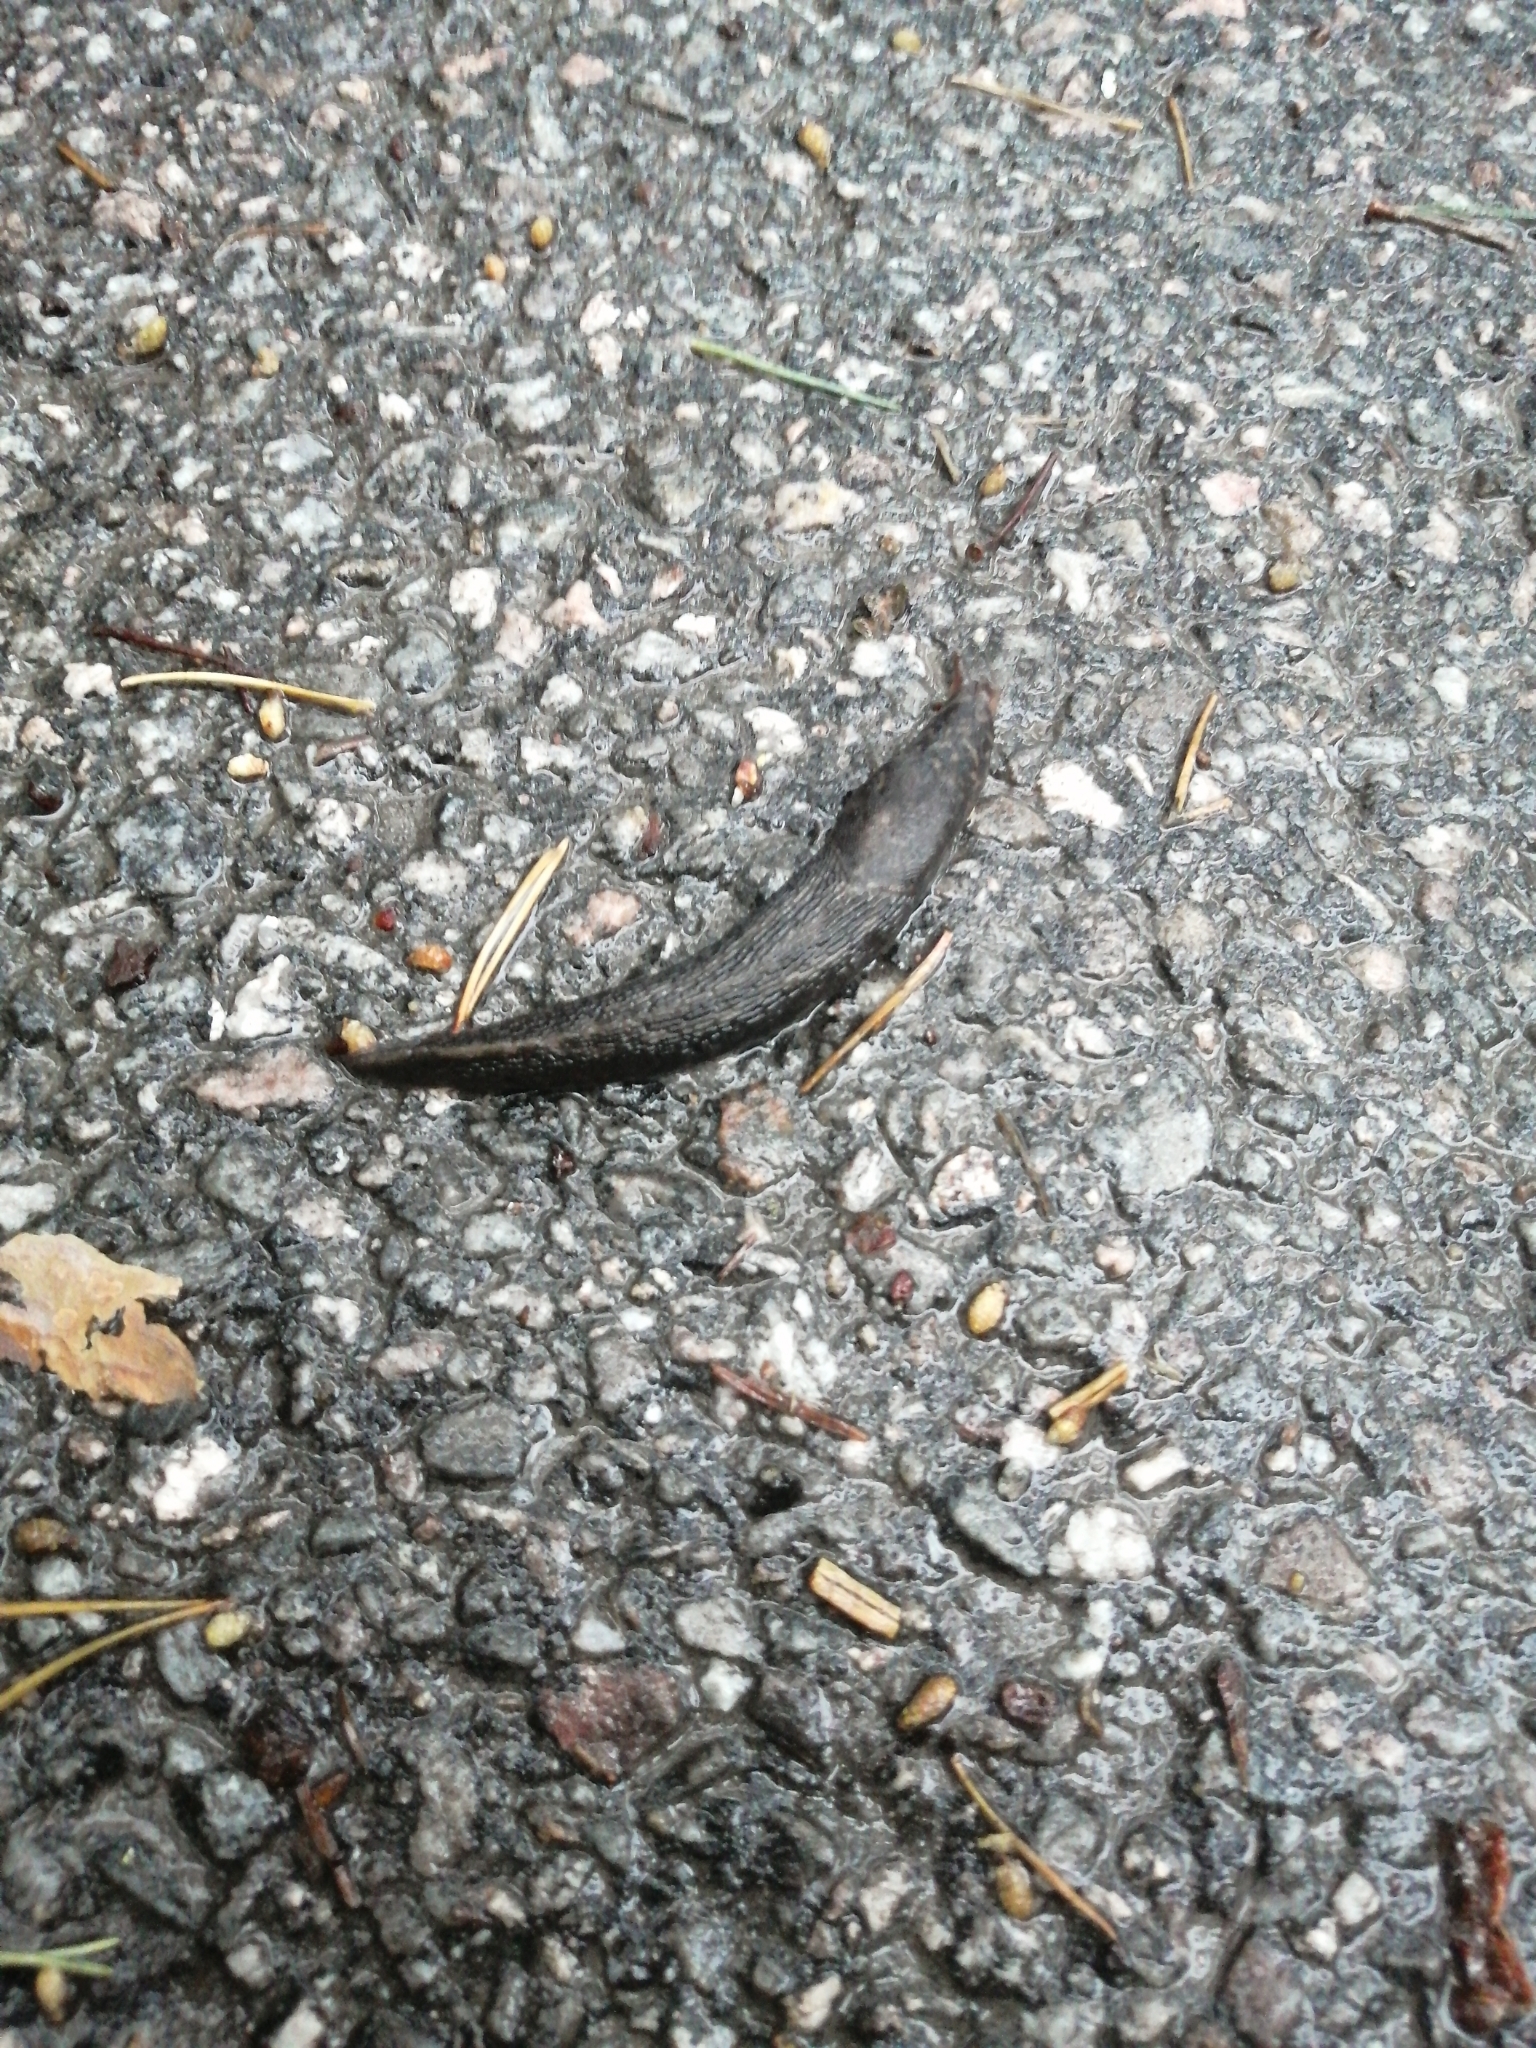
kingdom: Animalia
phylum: Mollusca
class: Gastropoda
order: Stylommatophora
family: Limacidae
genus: Limax
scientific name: Limax cinereoniger
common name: Ash-black slug
